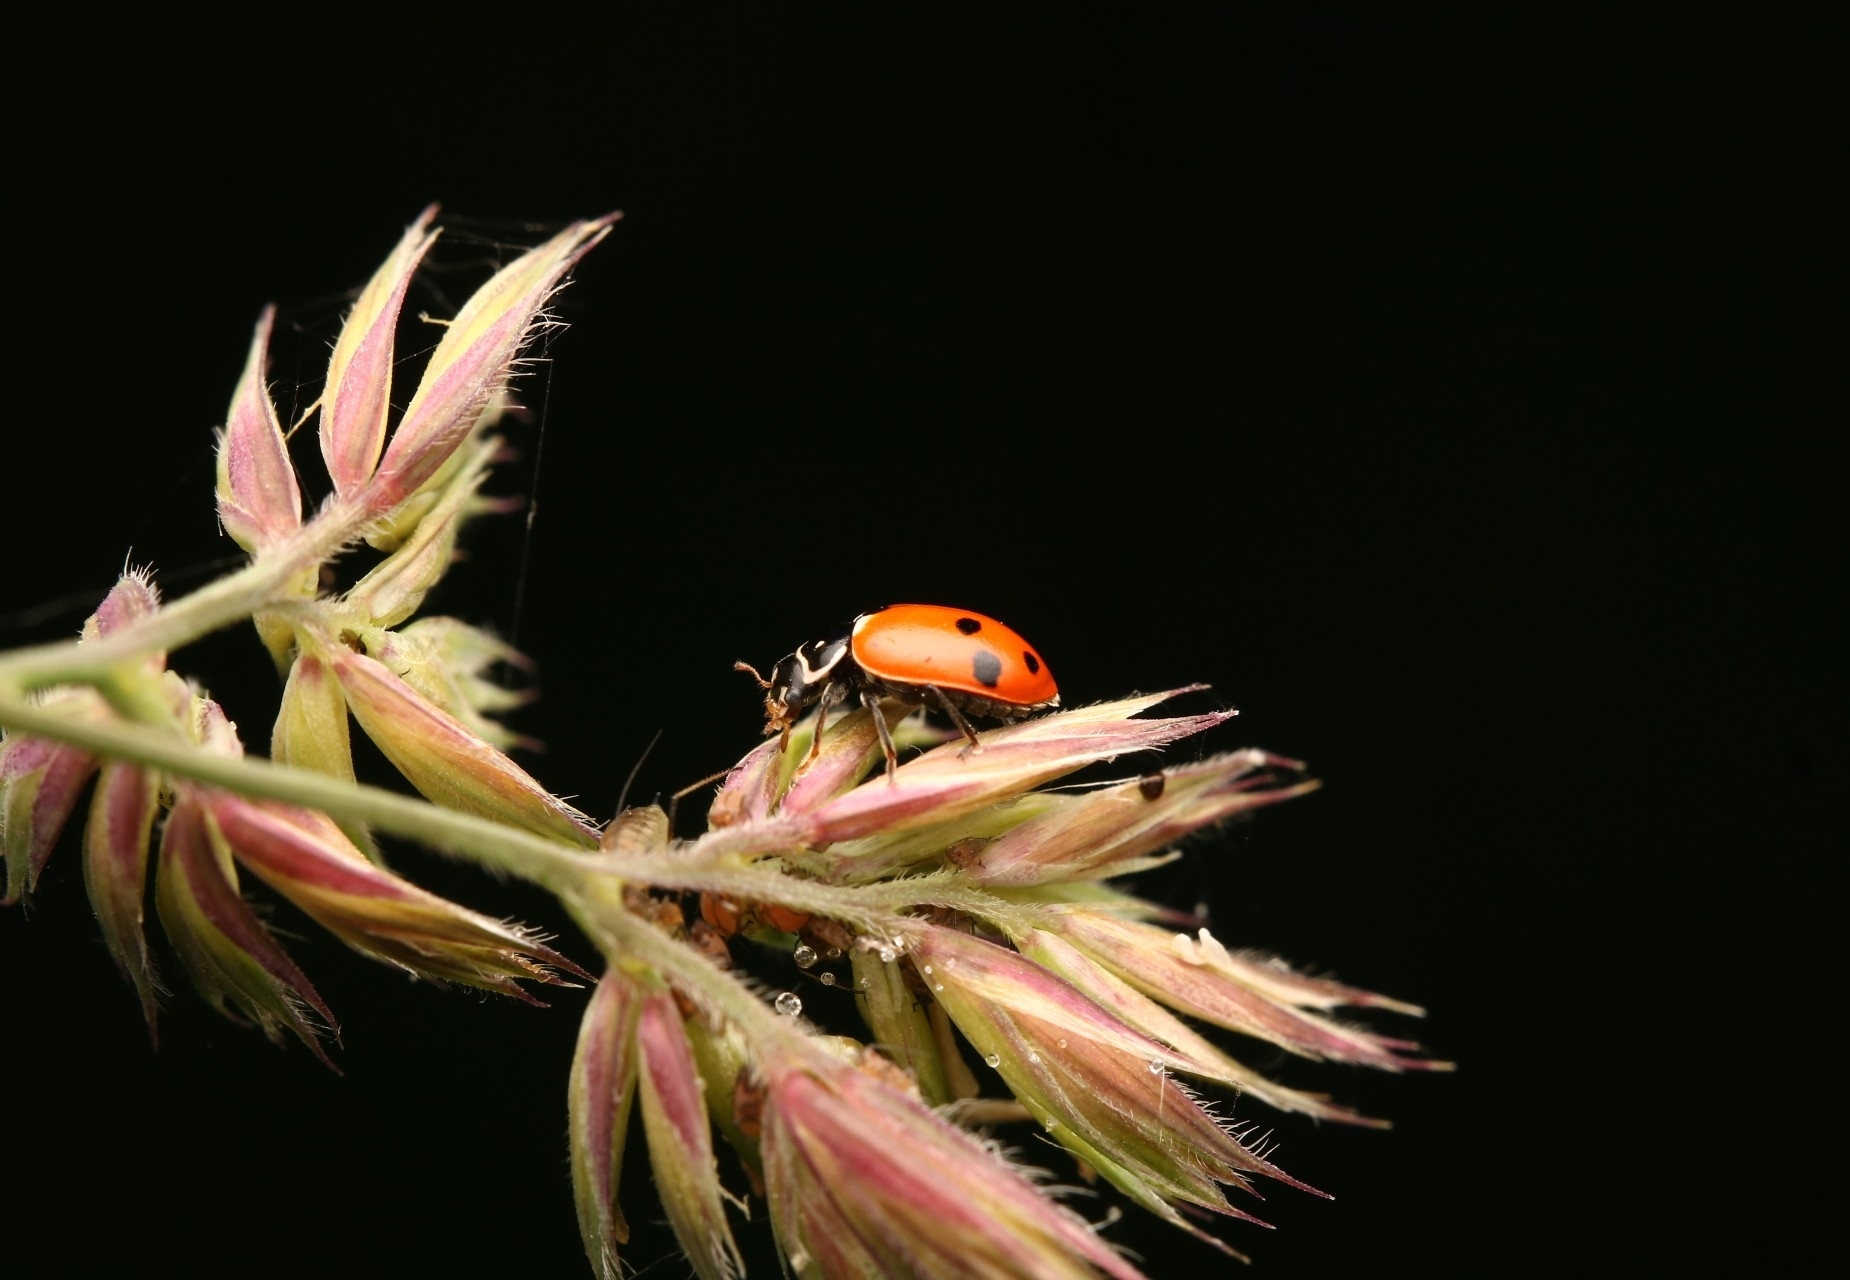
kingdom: Animalia
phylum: Arthropoda
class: Insecta
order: Coleoptera
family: Coccinellidae
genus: Hippodamia
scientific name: Hippodamia variegata
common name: Ladybird beetle
